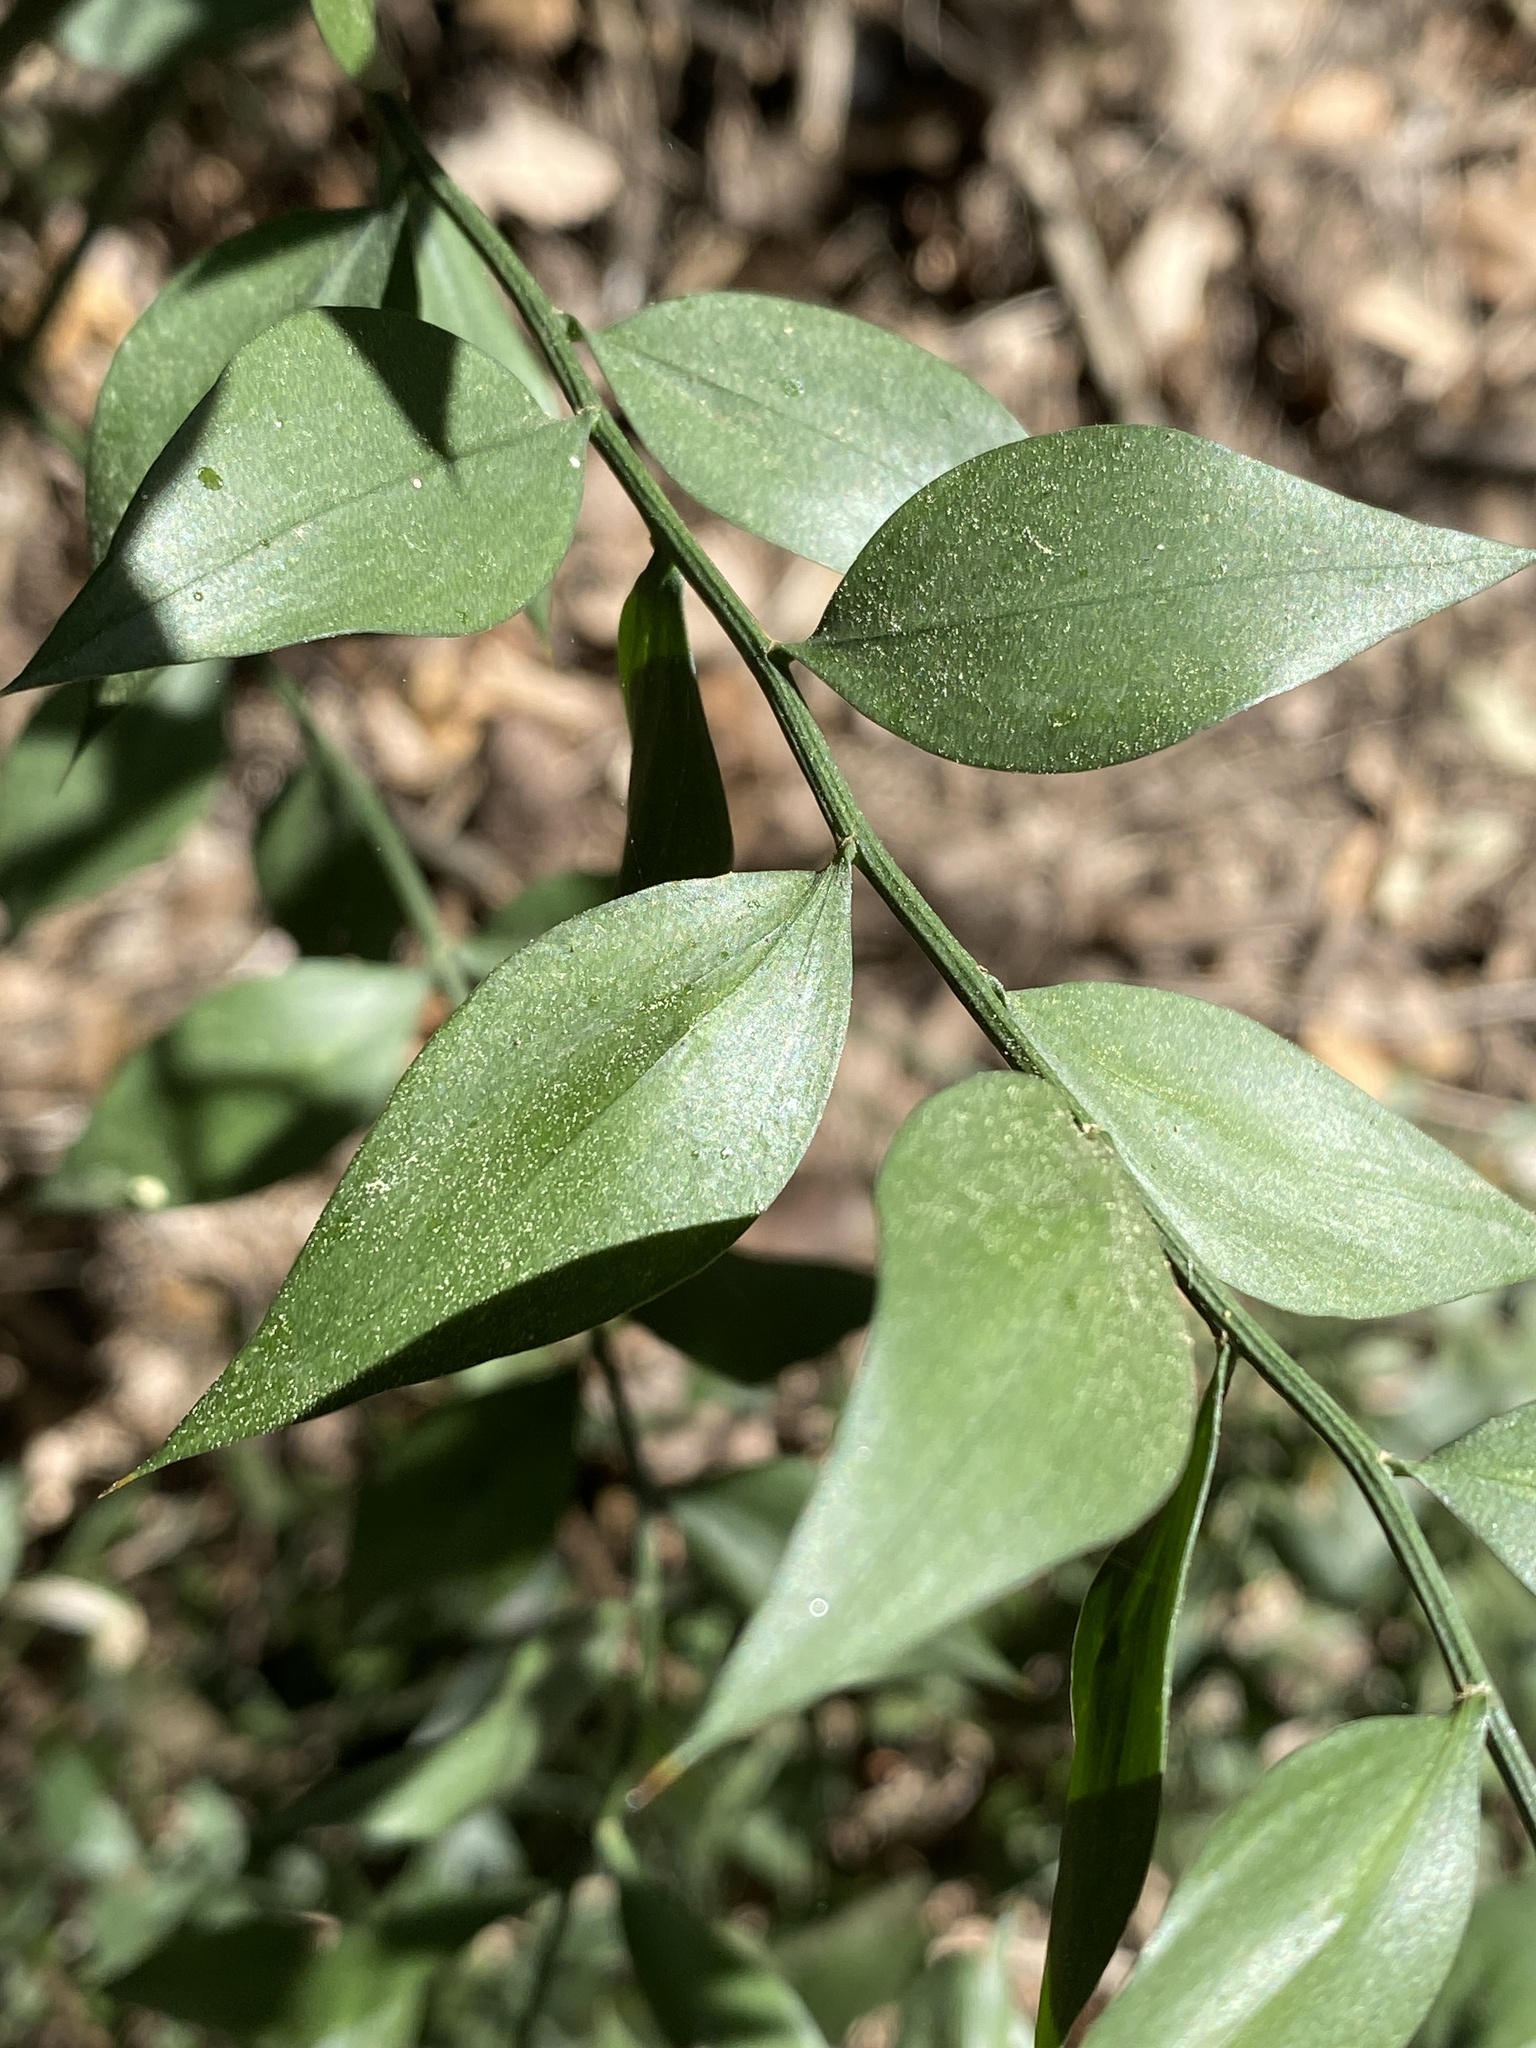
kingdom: Plantae
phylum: Tracheophyta
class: Liliopsida
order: Asparagales
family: Asparagaceae
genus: Ruscus
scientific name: Ruscus aculeatus
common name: Butcher's-broom
